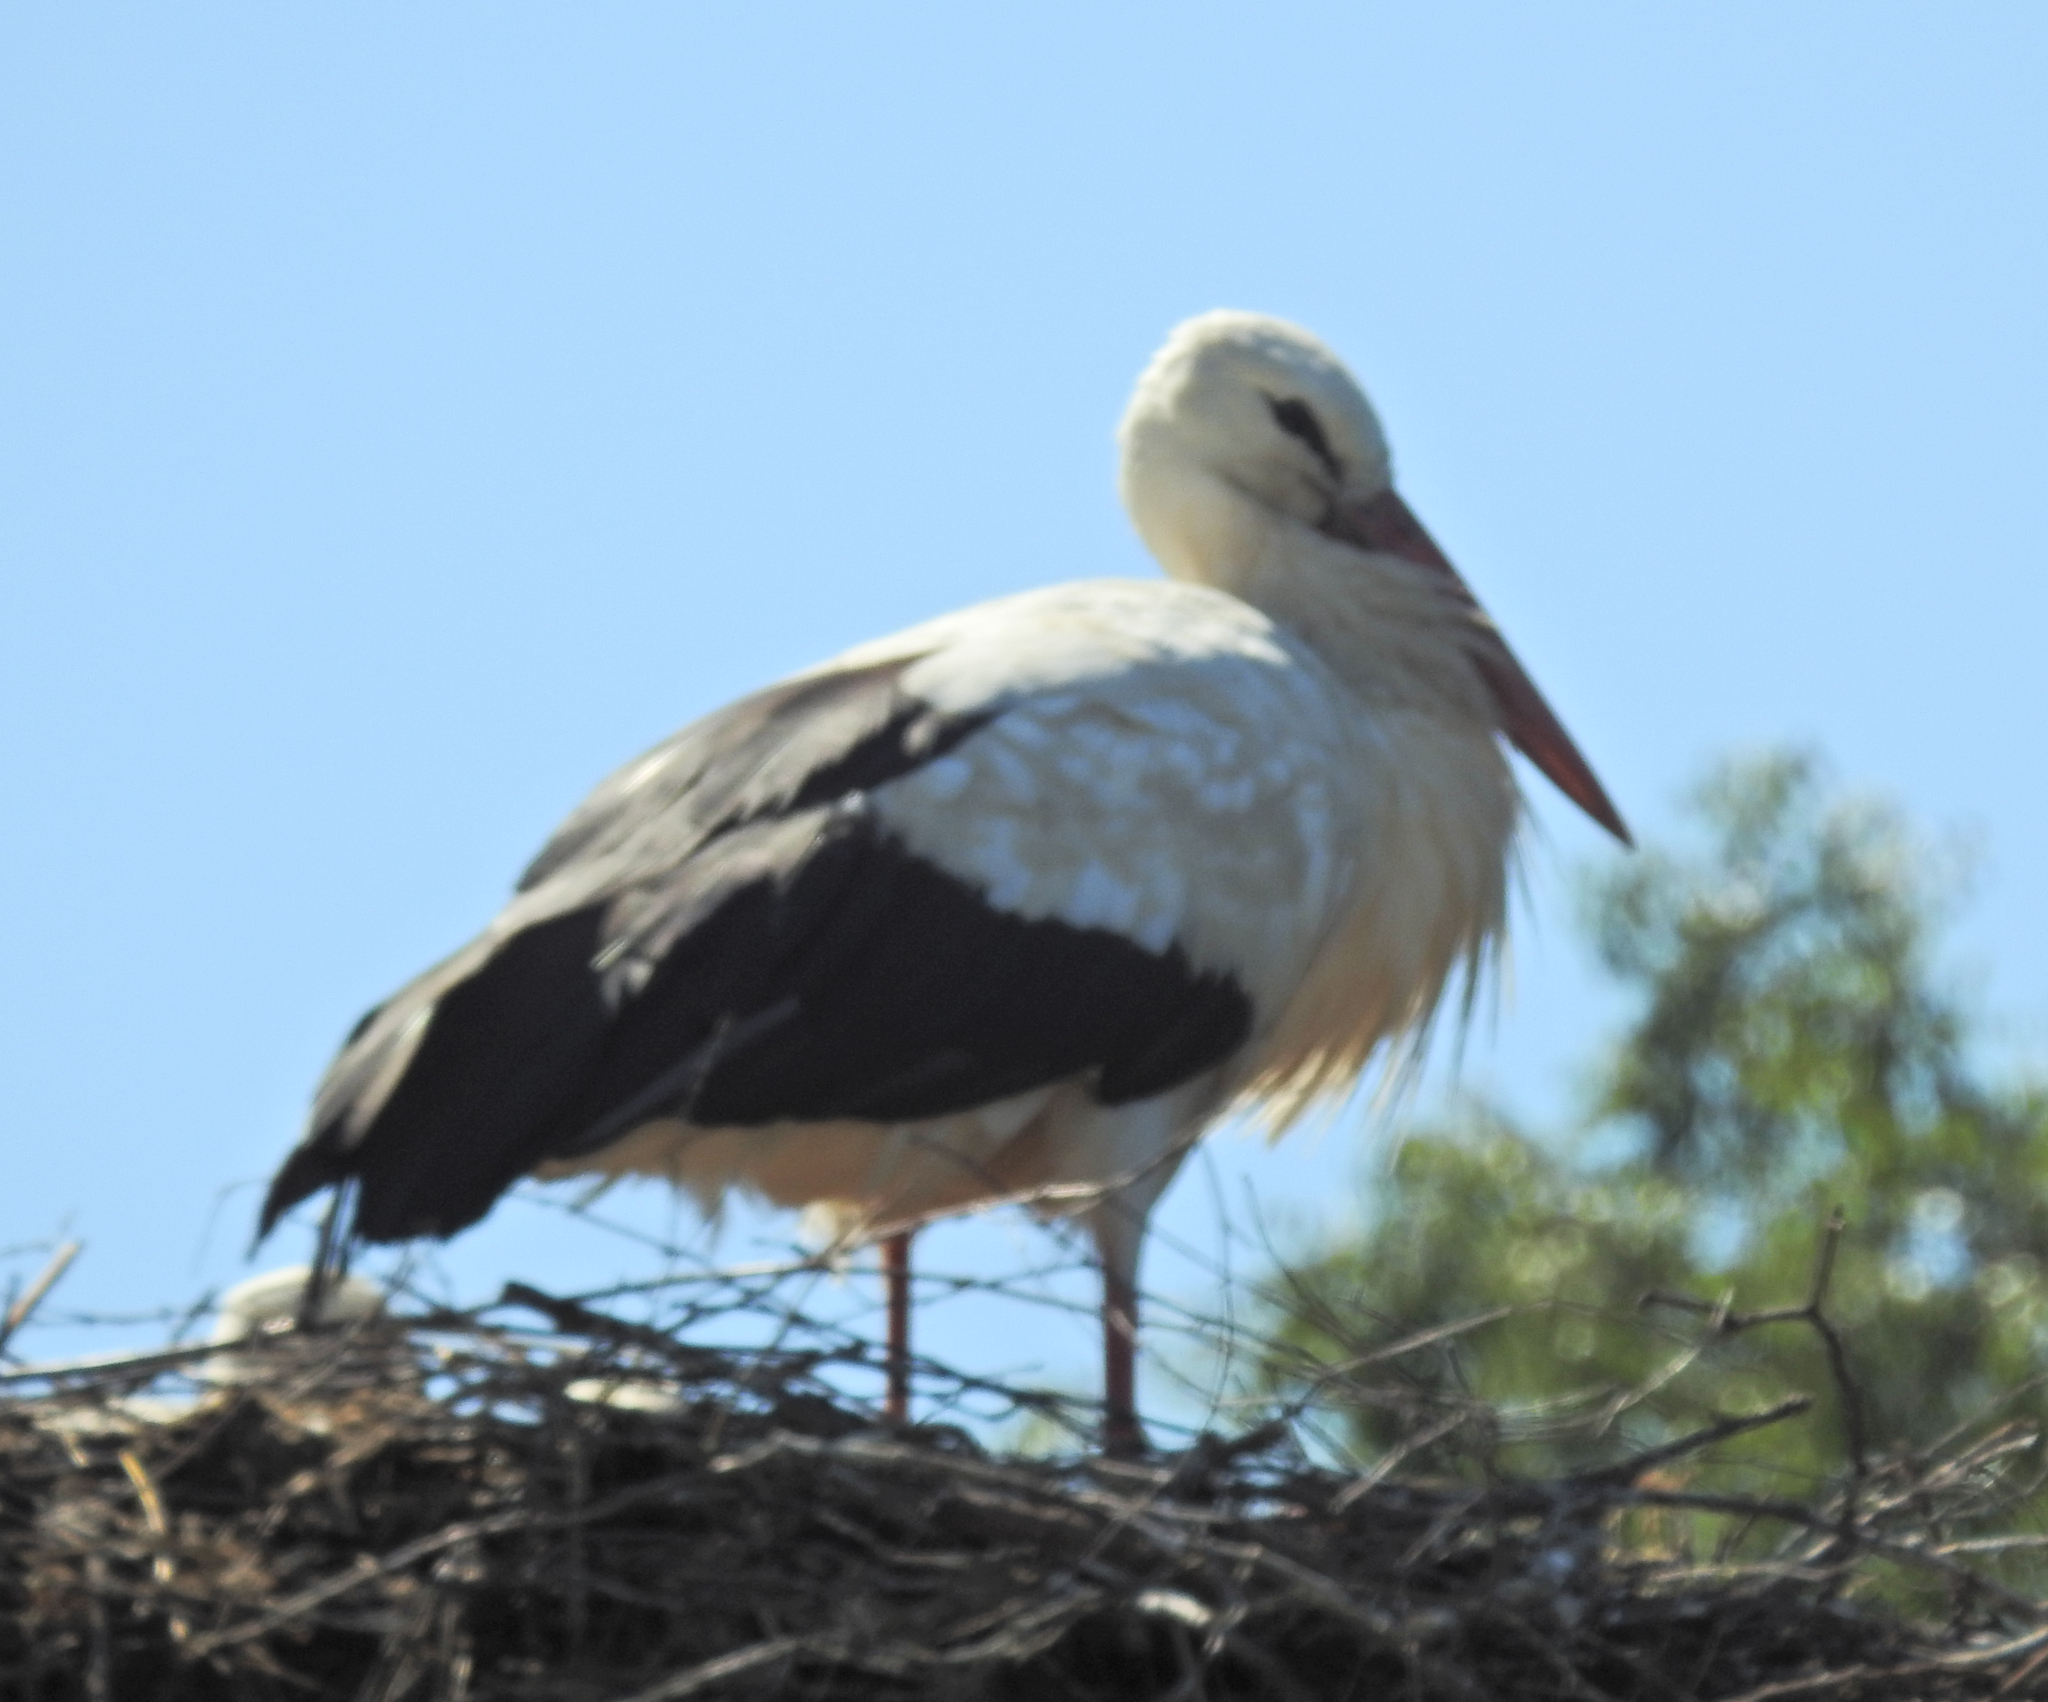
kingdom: Animalia
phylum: Chordata
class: Aves
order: Ciconiiformes
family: Ciconiidae
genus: Ciconia
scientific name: Ciconia ciconia
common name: White stork
